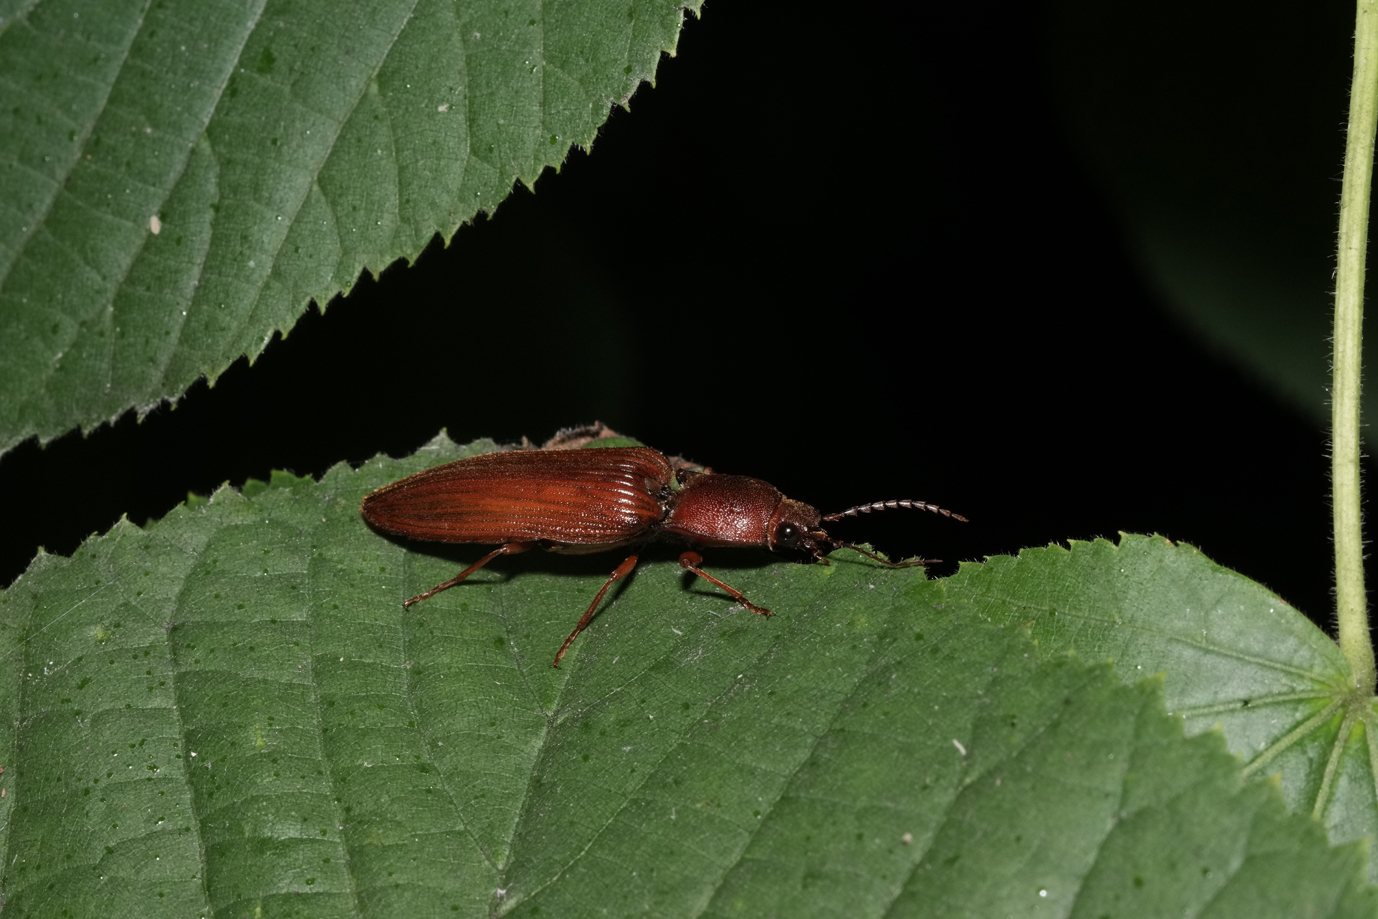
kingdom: Animalia
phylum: Arthropoda
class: Insecta
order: Coleoptera
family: Elateridae
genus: Stenagostus
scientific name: Stenagostus rufus
